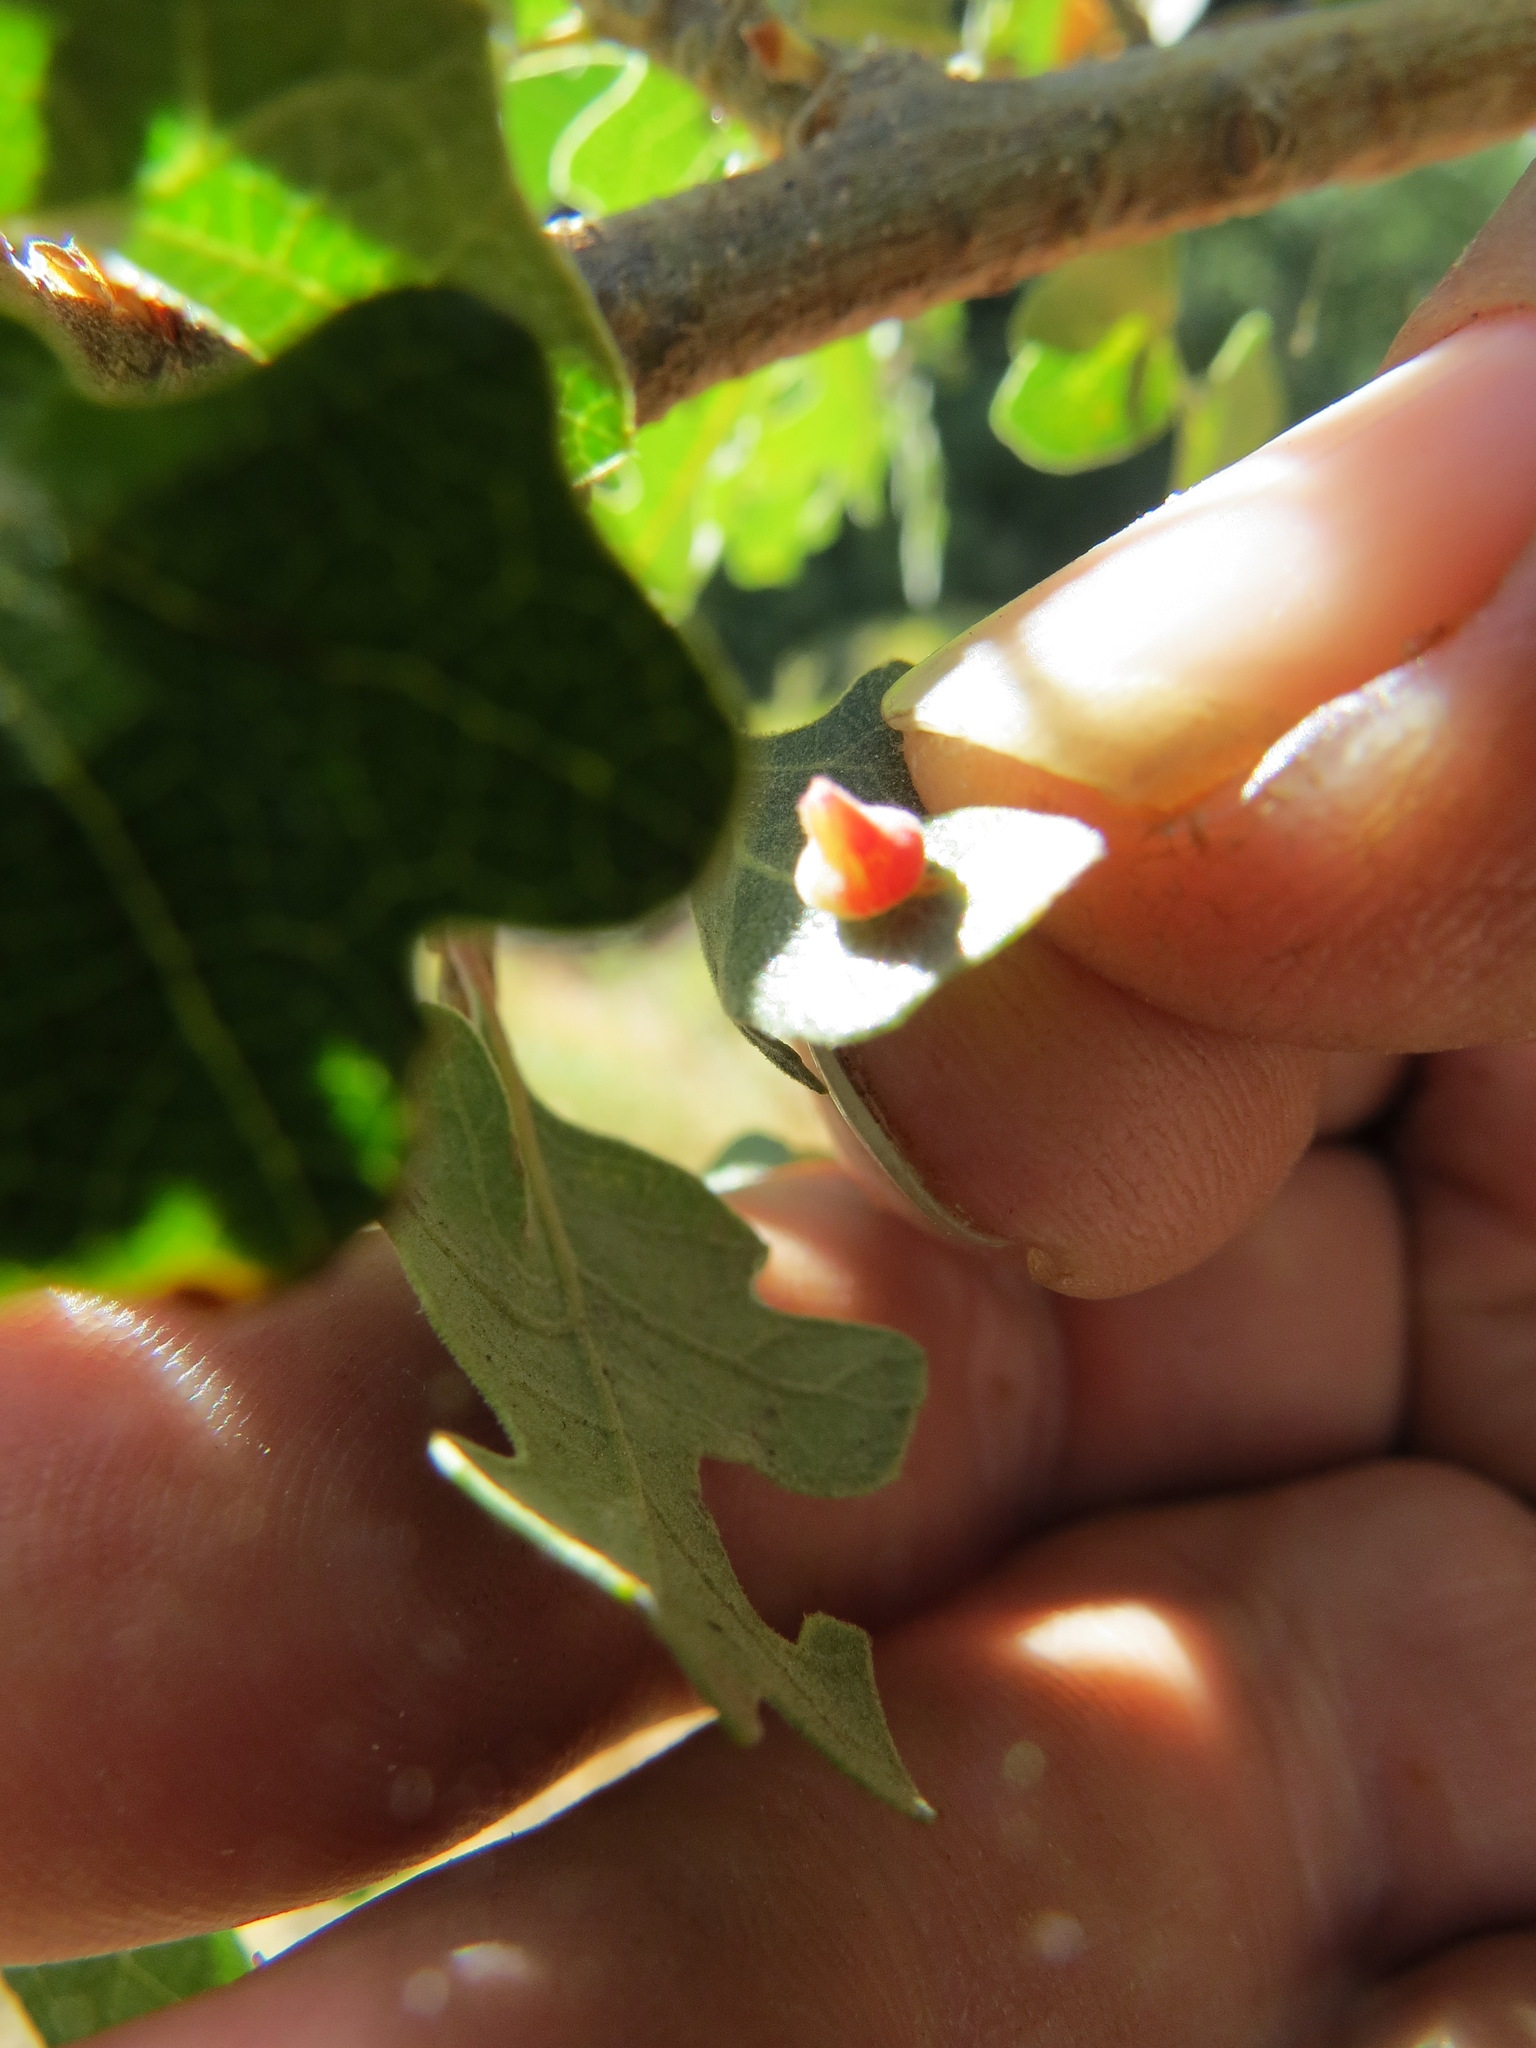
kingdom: Animalia
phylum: Arthropoda
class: Insecta
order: Hymenoptera
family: Cynipidae
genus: Andricus
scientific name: Andricus
